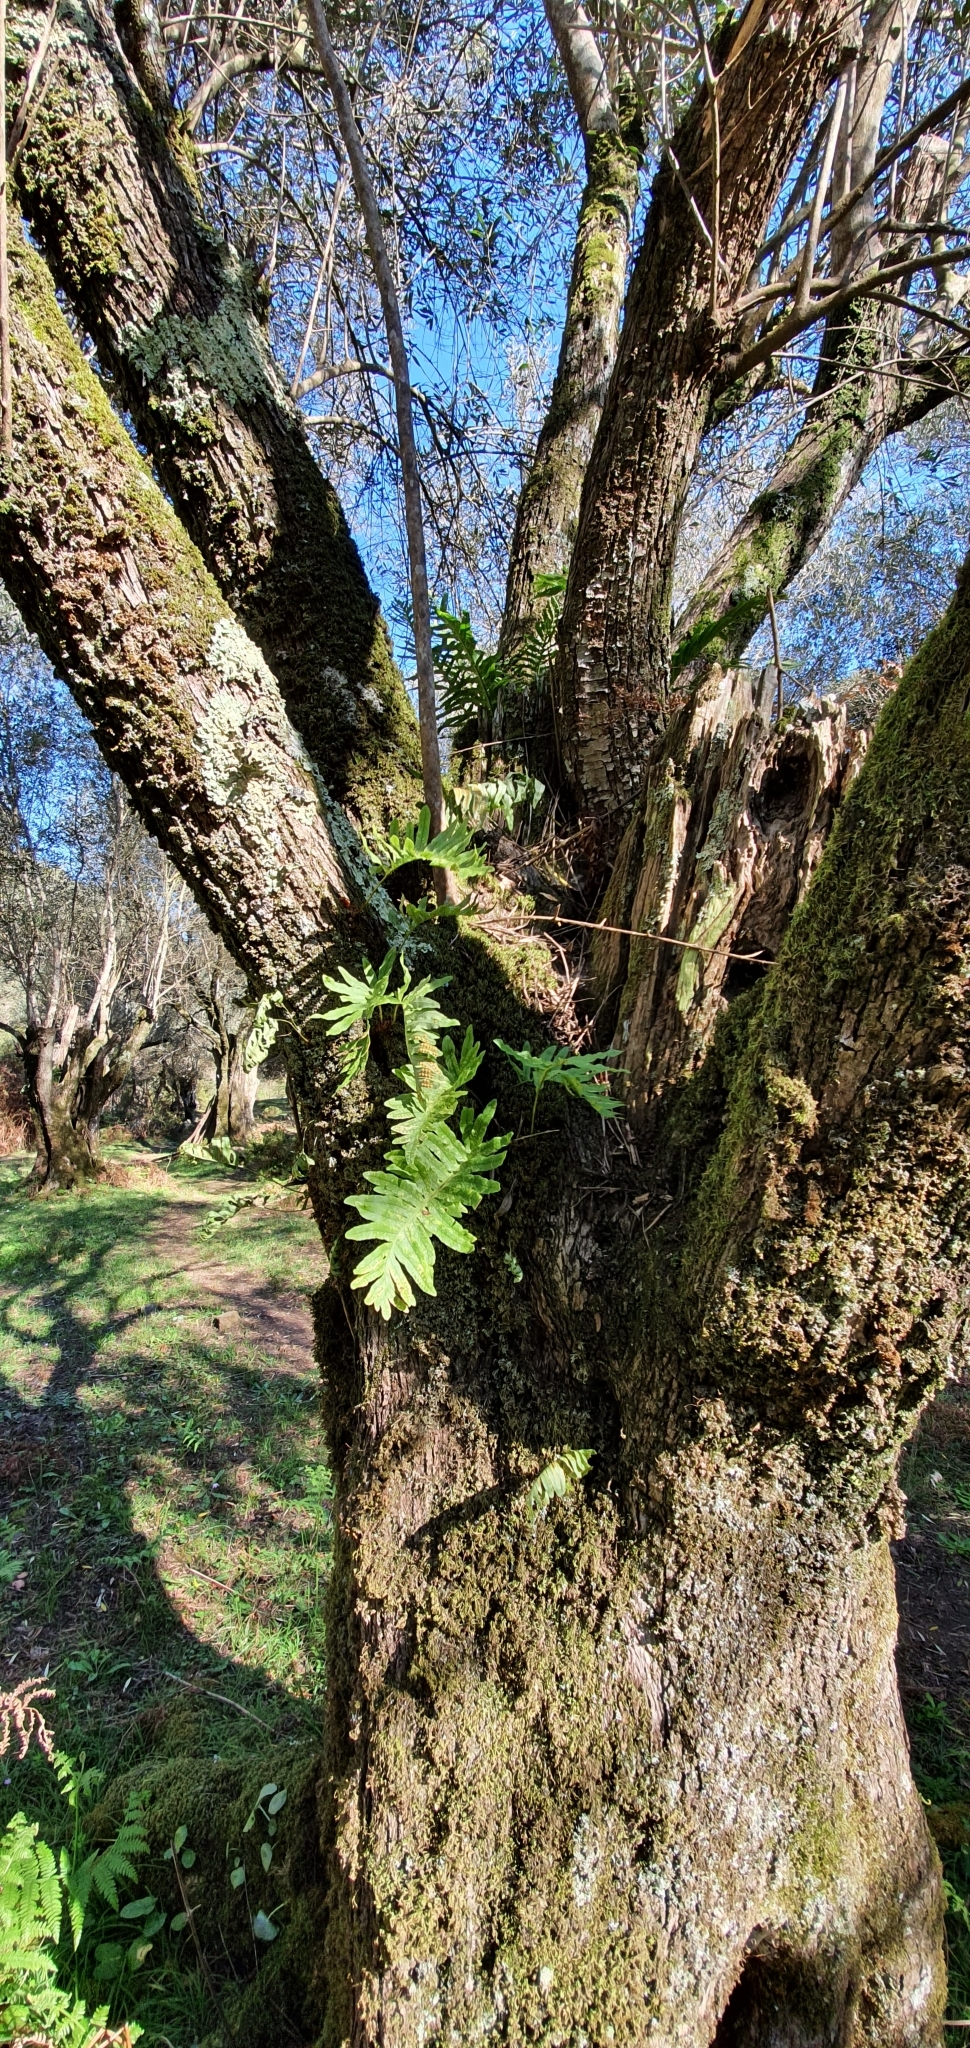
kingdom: Plantae
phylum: Tracheophyta
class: Polypodiopsida
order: Polypodiales
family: Polypodiaceae
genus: Polypodium
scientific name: Polypodium cambricum
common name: Southern polypody
